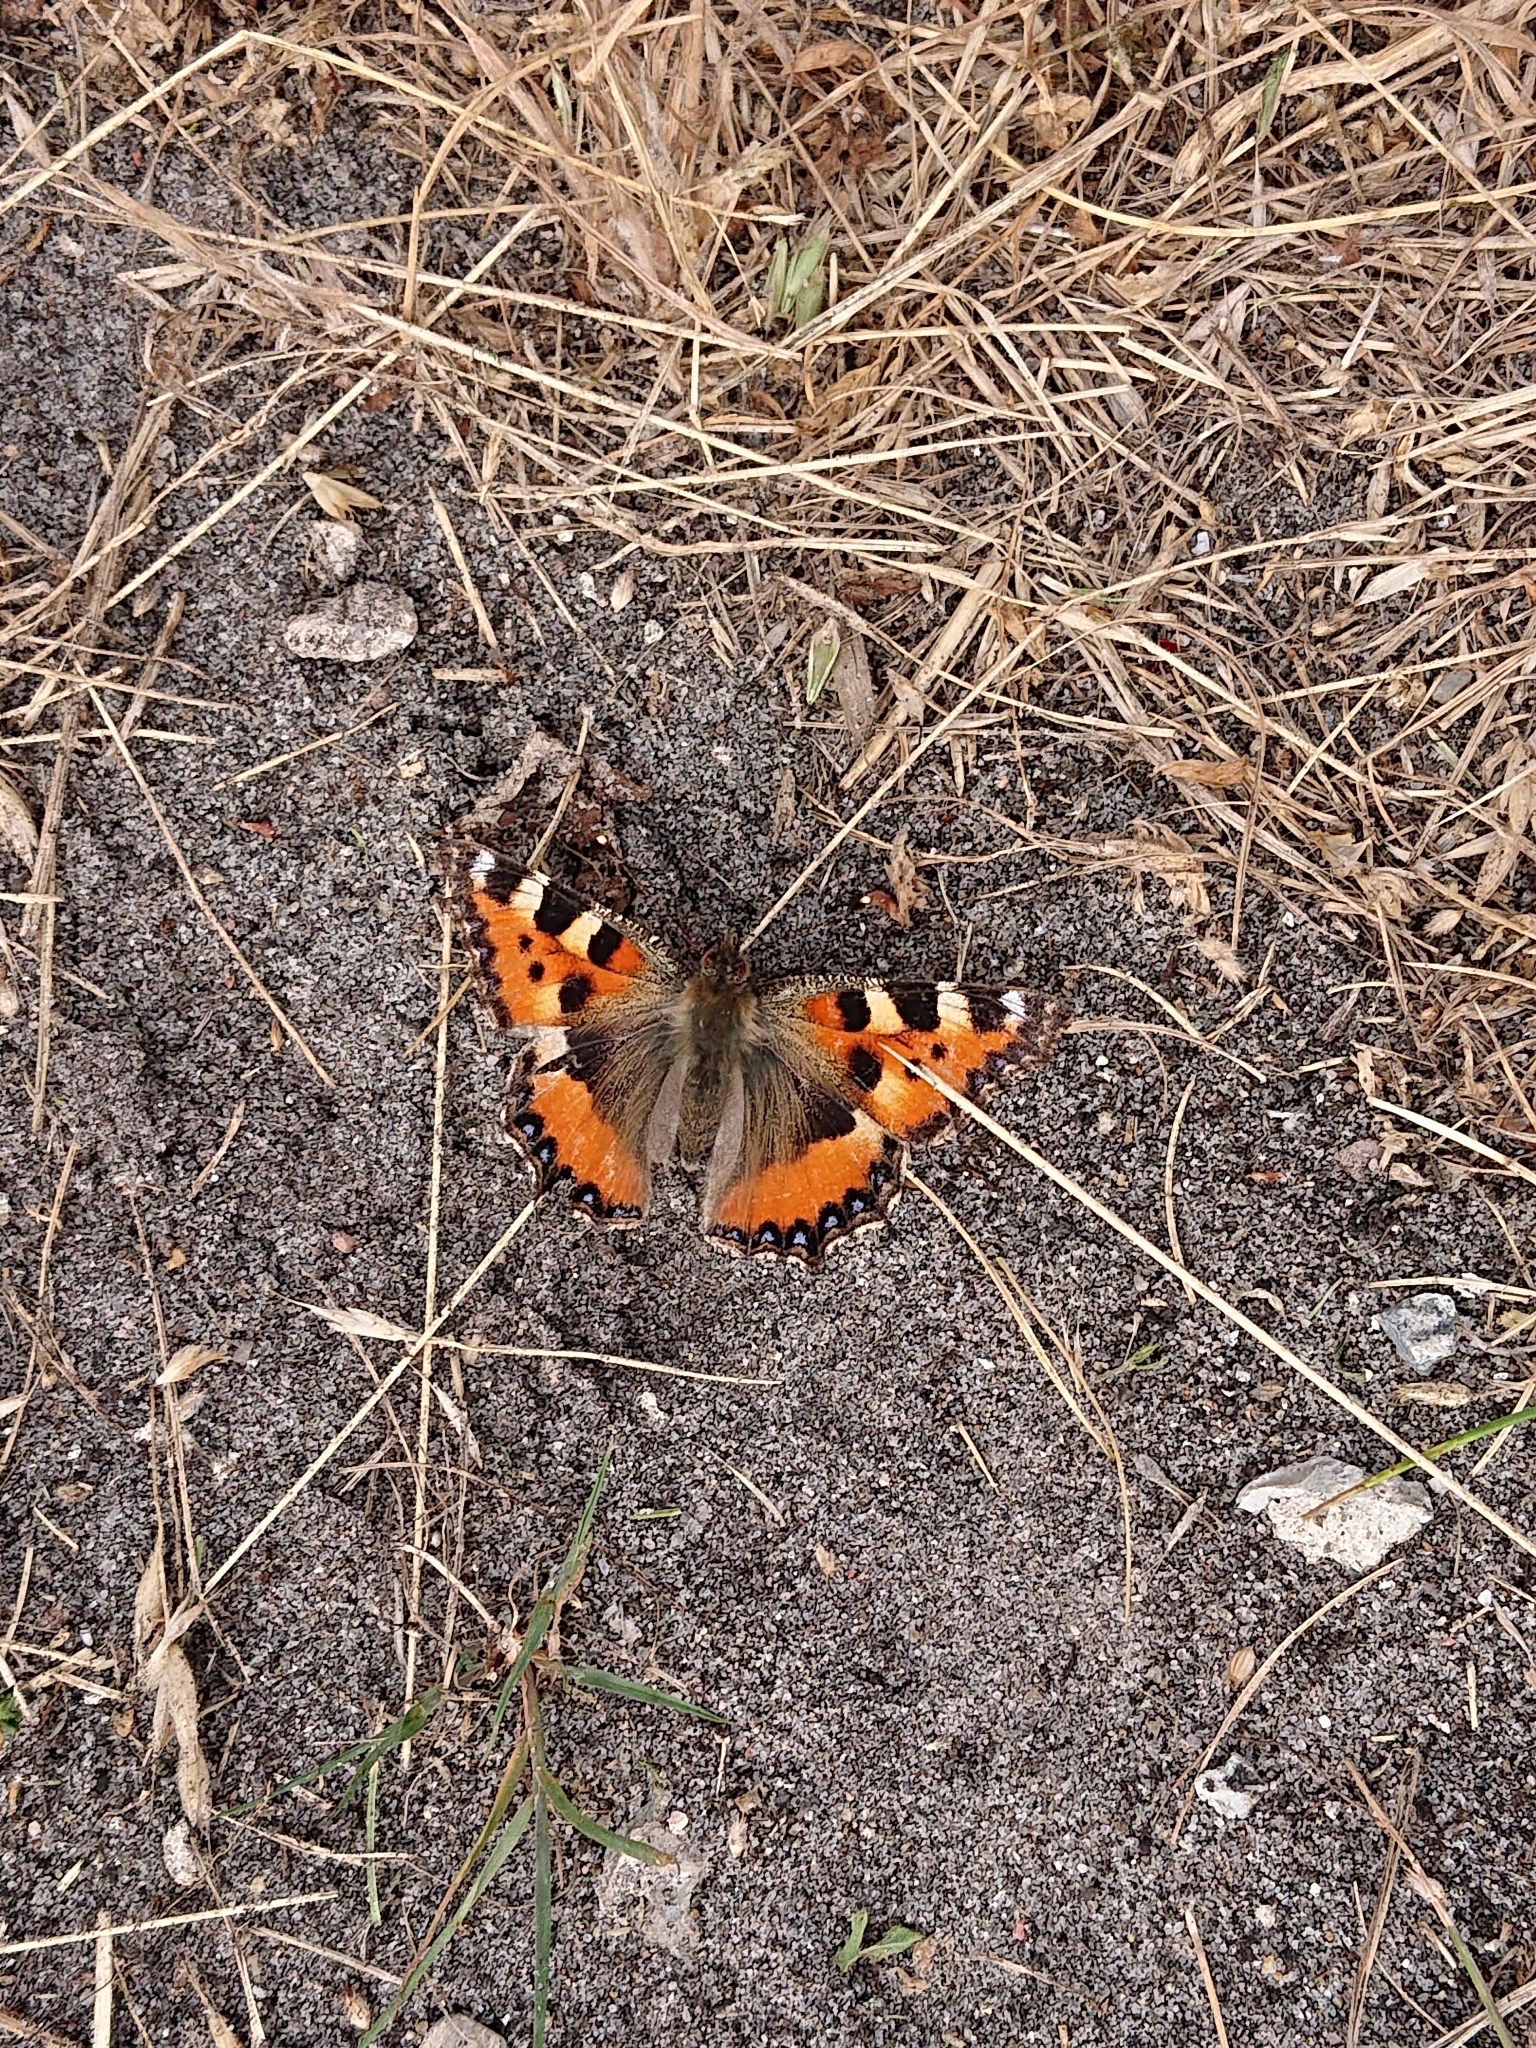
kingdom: Animalia
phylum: Arthropoda
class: Insecta
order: Lepidoptera
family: Nymphalidae
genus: Aglais
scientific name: Aglais urticae
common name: Small tortoiseshell
